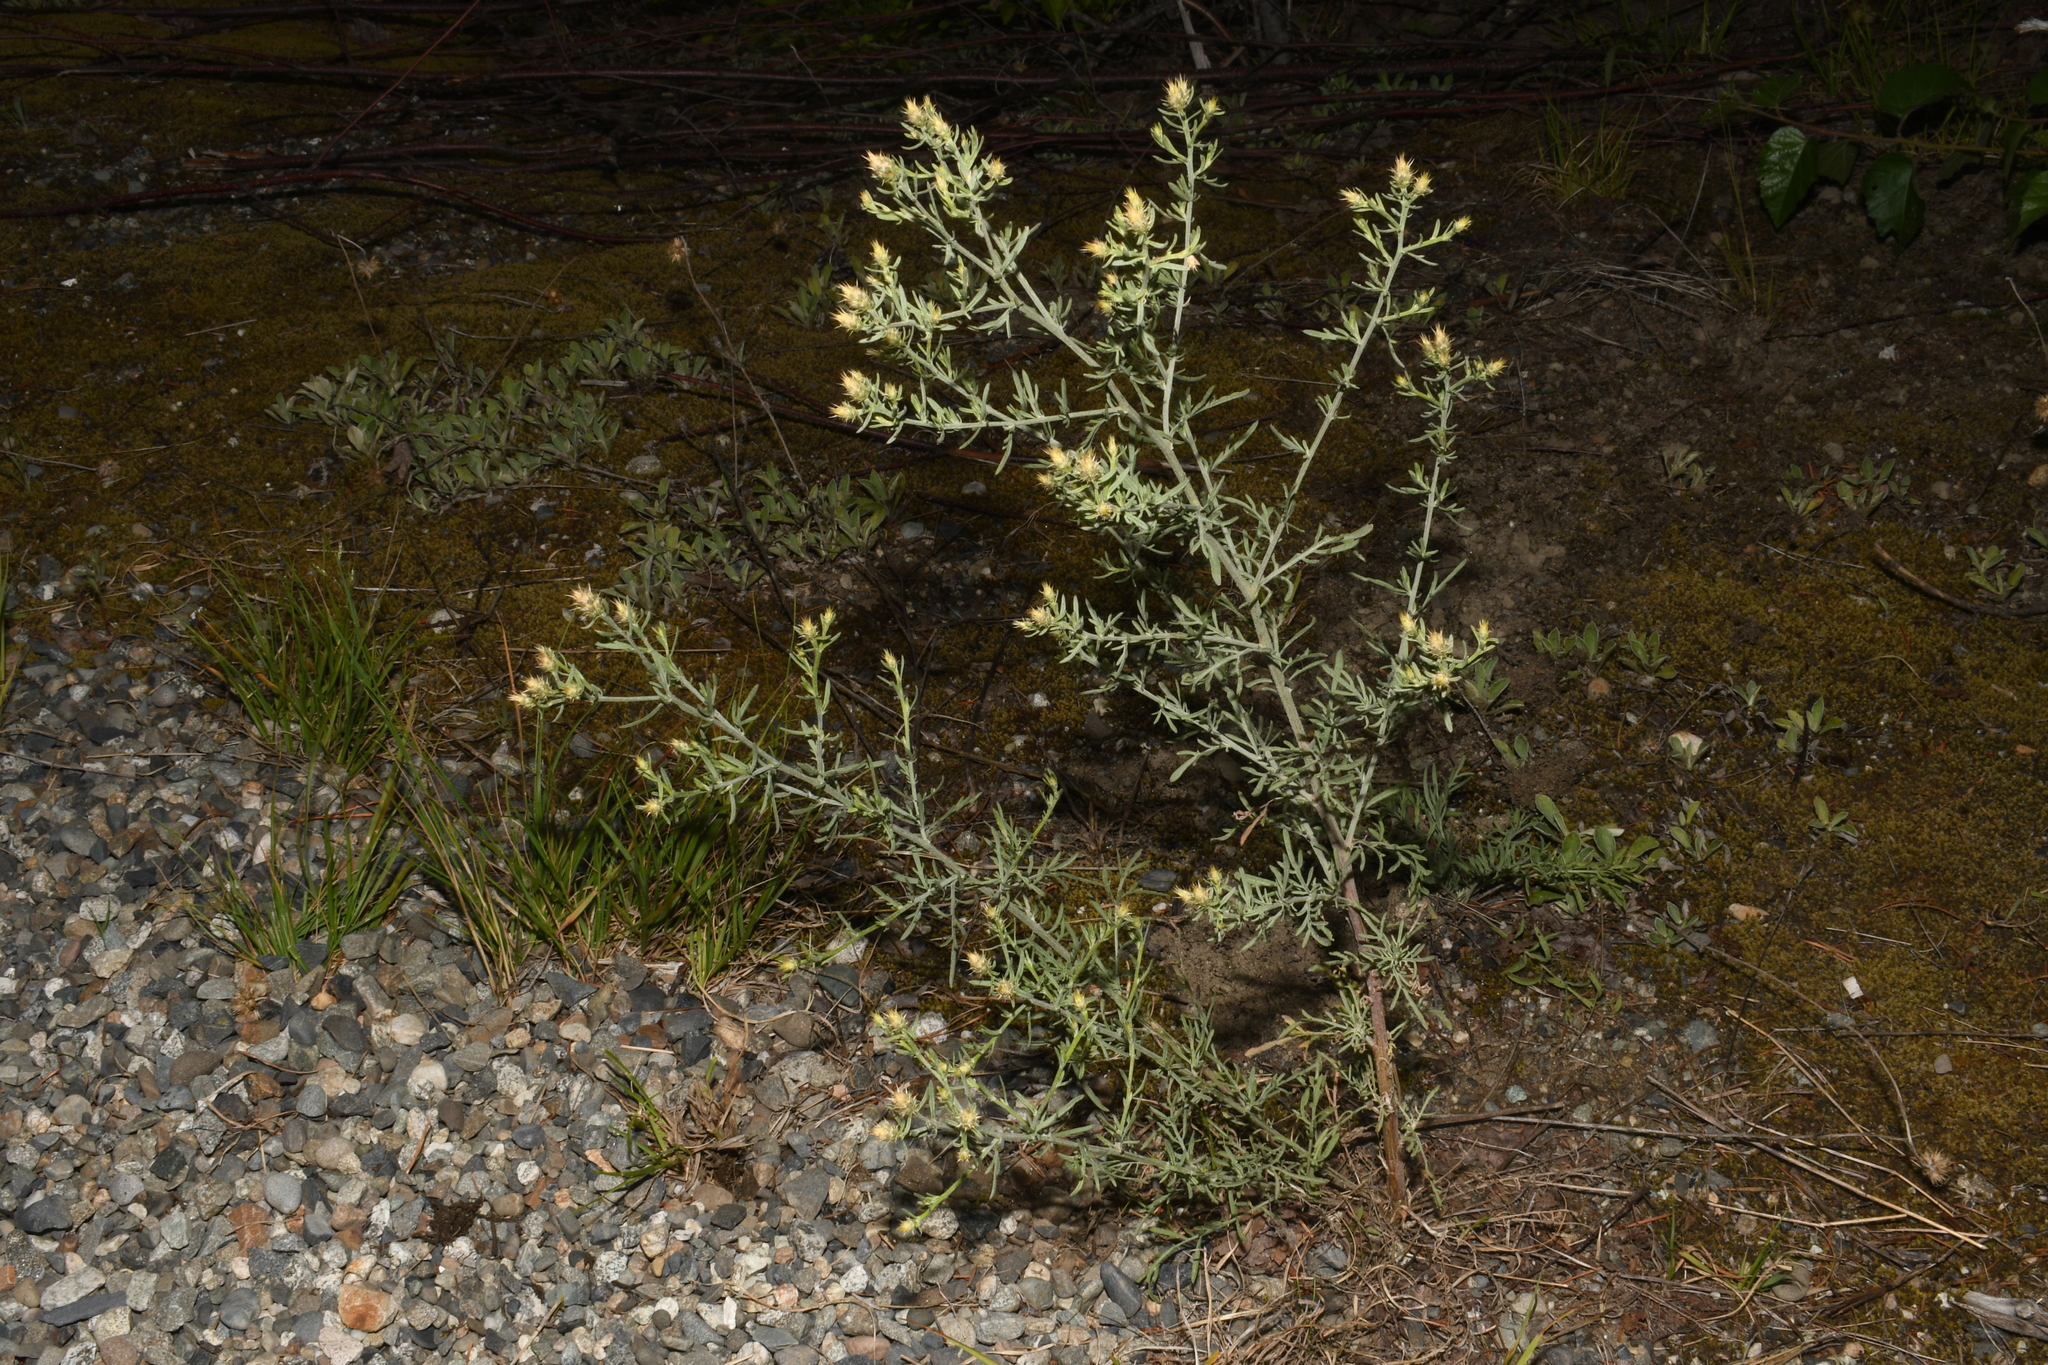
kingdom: Plantae
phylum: Tracheophyta
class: Magnoliopsida
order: Asterales
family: Asteraceae
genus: Centaurea
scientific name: Centaurea diffusa
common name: Diffuse knapweed
